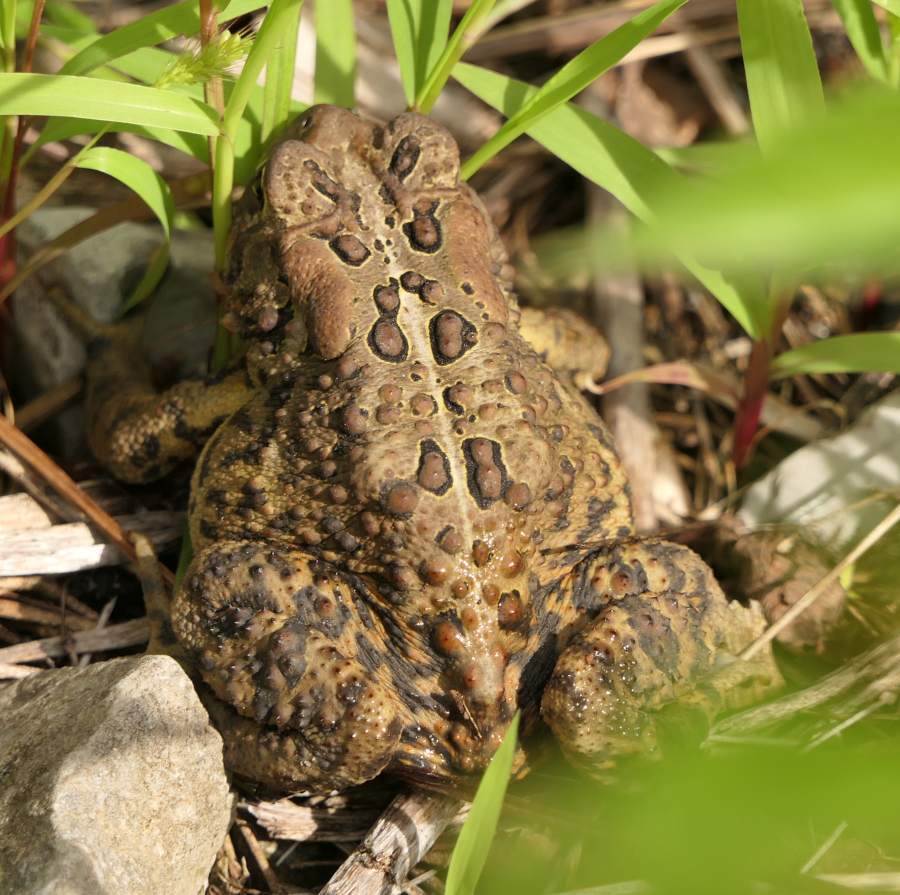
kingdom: Animalia
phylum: Chordata
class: Amphibia
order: Anura
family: Bufonidae
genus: Anaxyrus
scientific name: Anaxyrus americanus
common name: American toad
